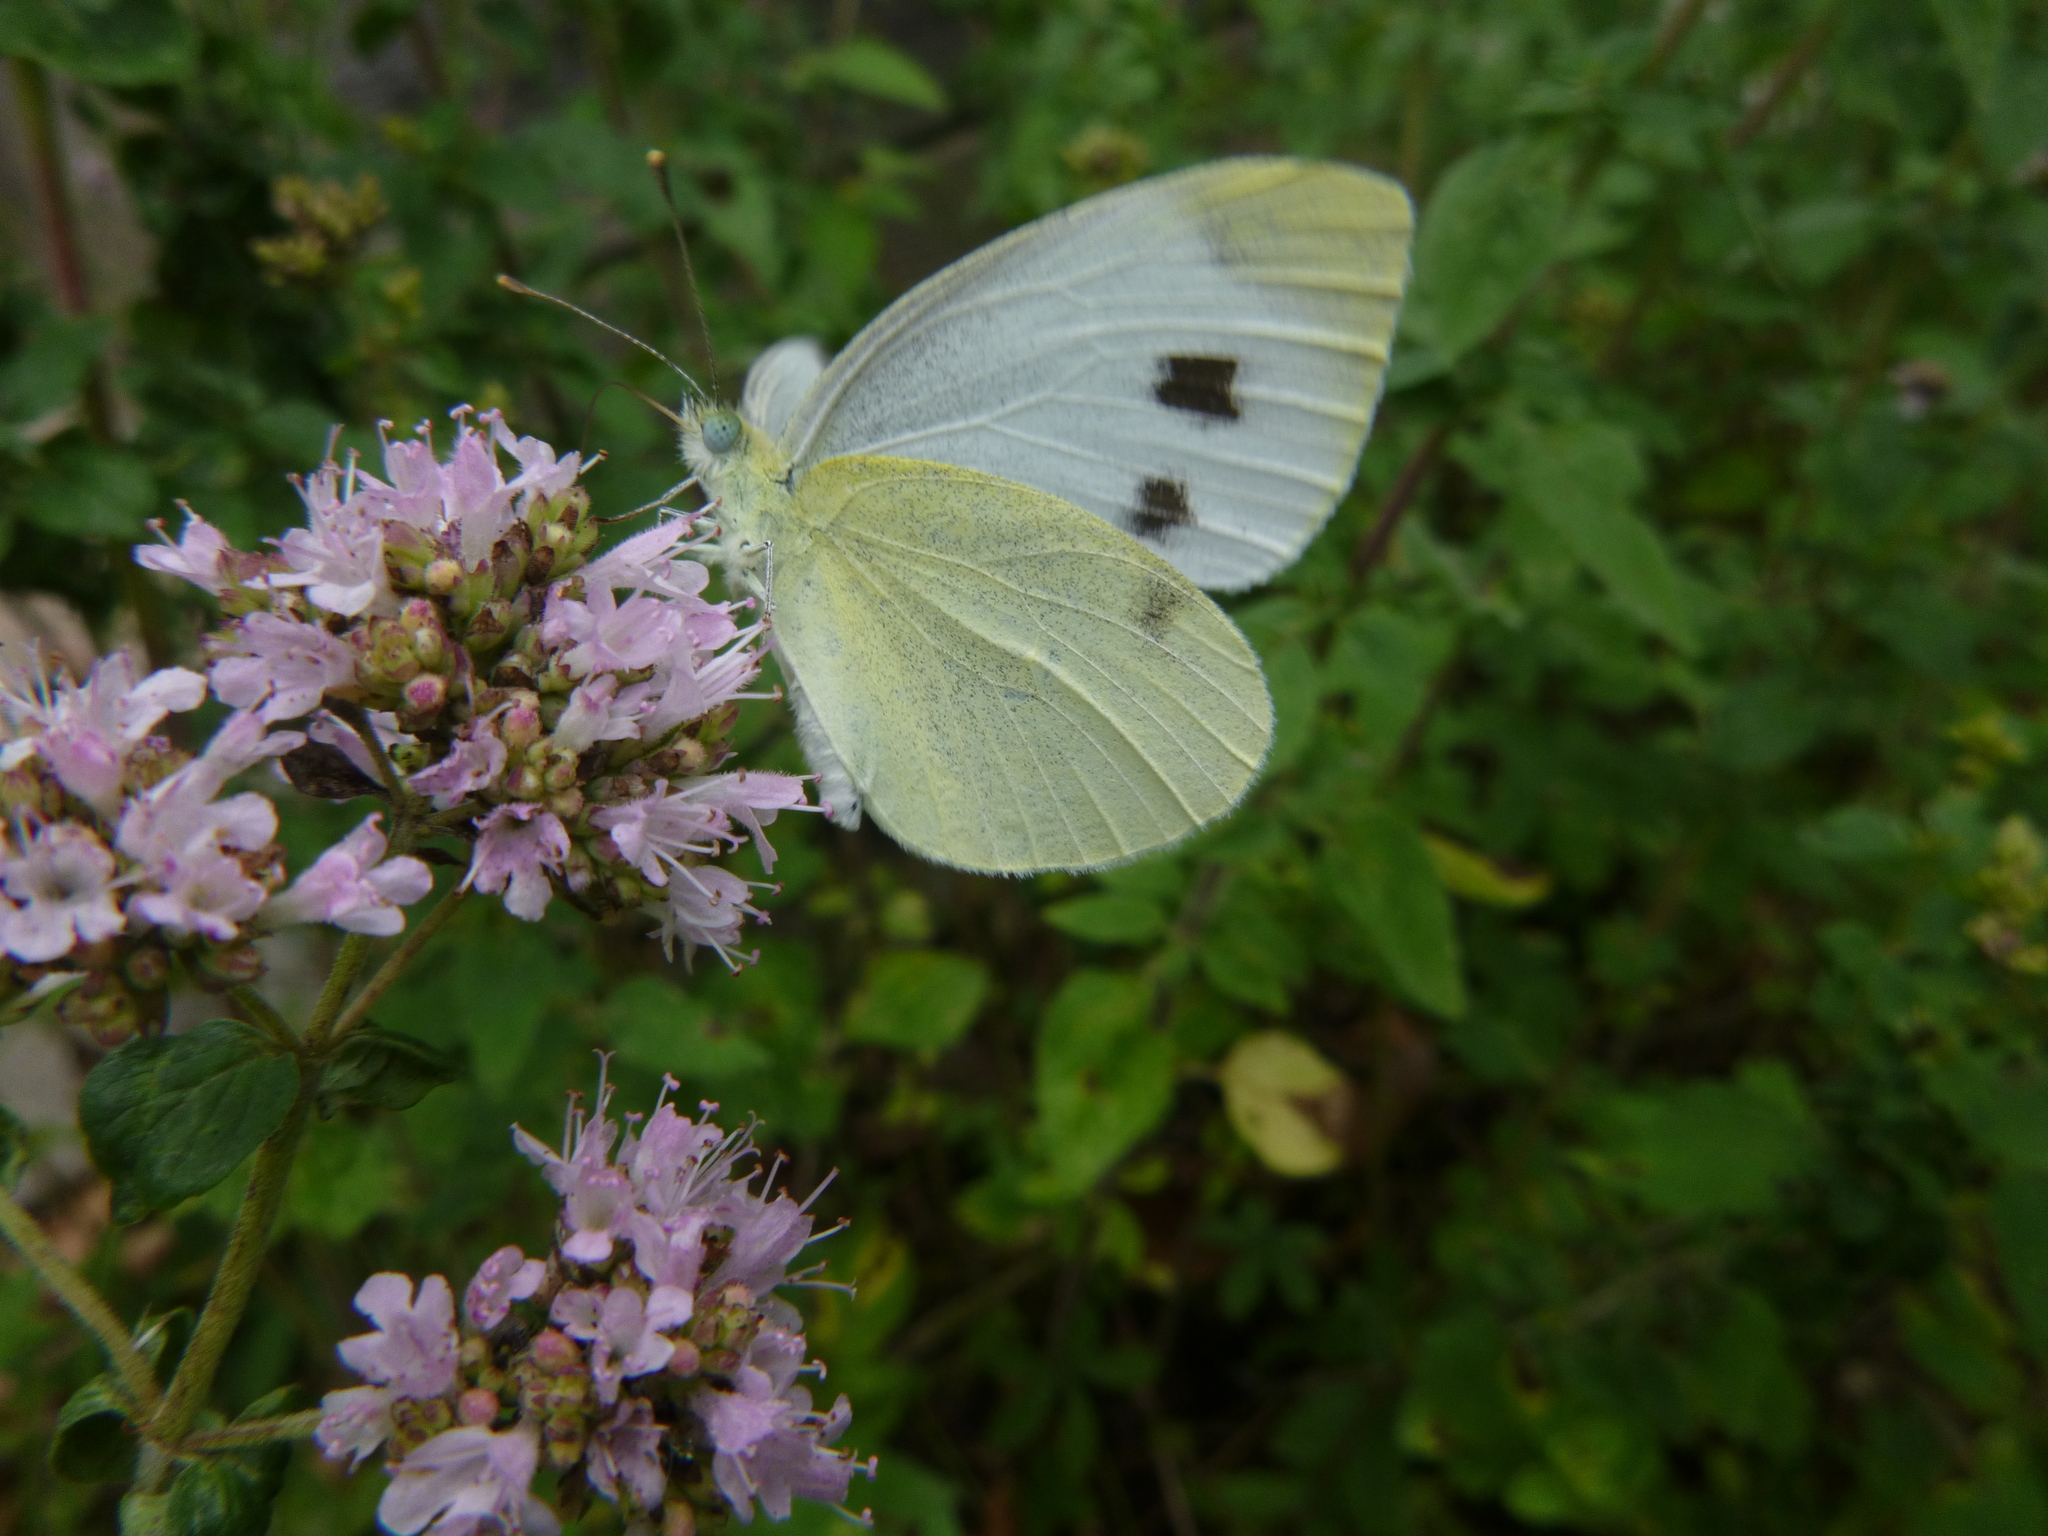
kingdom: Animalia
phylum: Arthropoda
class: Insecta
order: Lepidoptera
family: Pieridae
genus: Pieris
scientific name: Pieris mannii
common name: Southern small white
